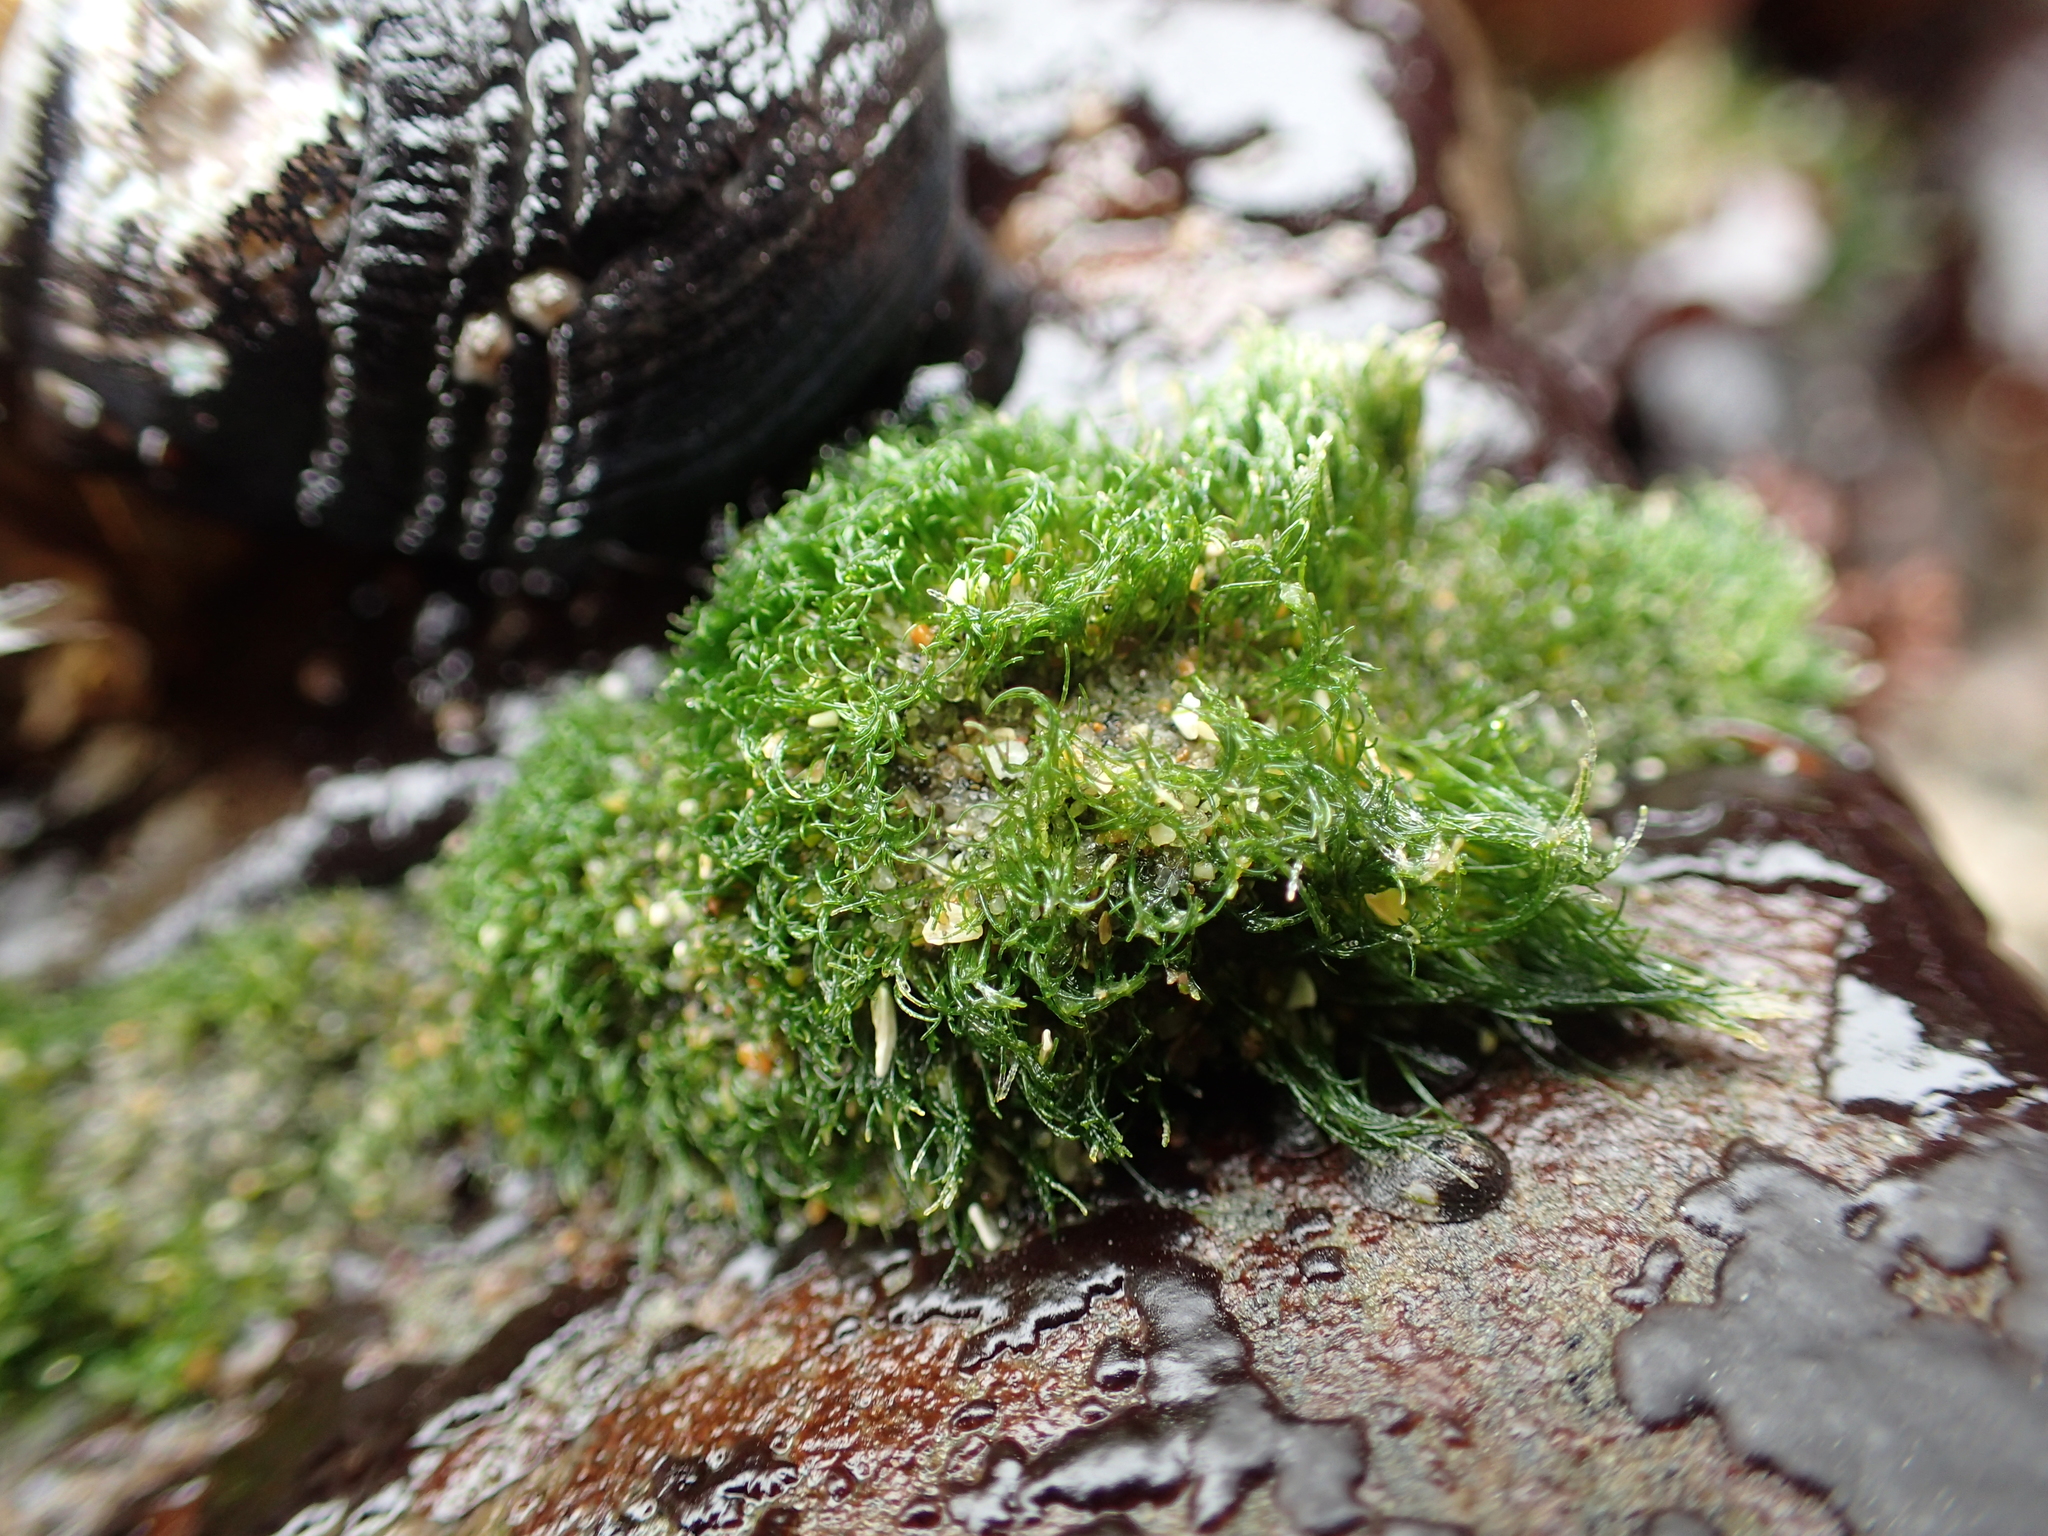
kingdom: Plantae
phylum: Chlorophyta
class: Ulvophyceae
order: Cladophorales
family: Cladophoraceae
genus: Cladophora
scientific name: Cladophora columbiana
